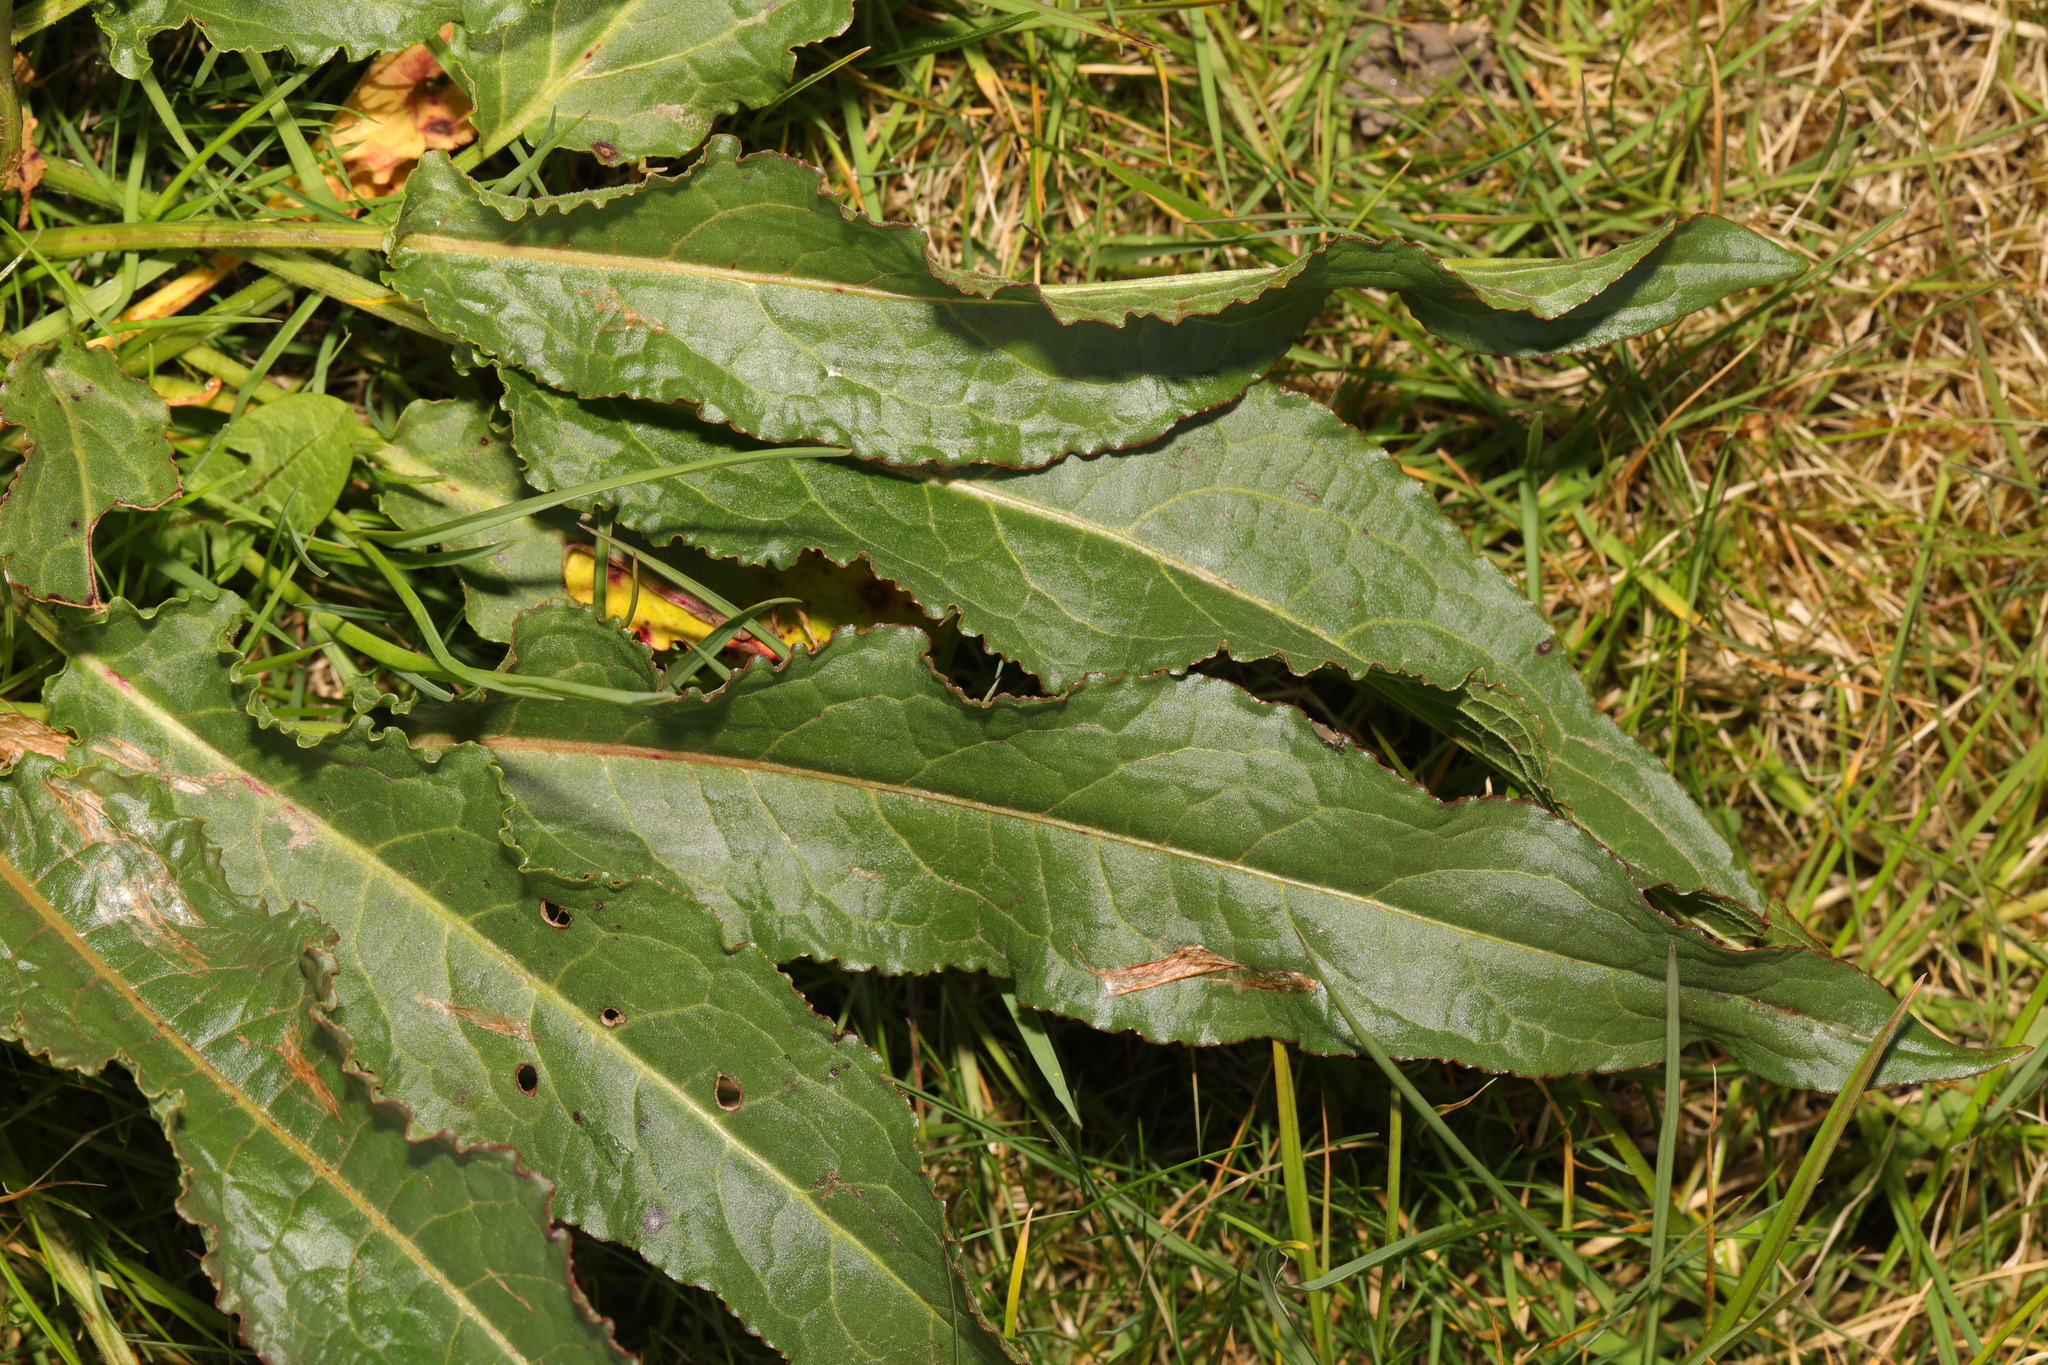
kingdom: Plantae
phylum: Tracheophyta
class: Magnoliopsida
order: Caryophyllales
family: Polygonaceae
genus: Rumex
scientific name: Rumex crispus
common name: Curled dock
